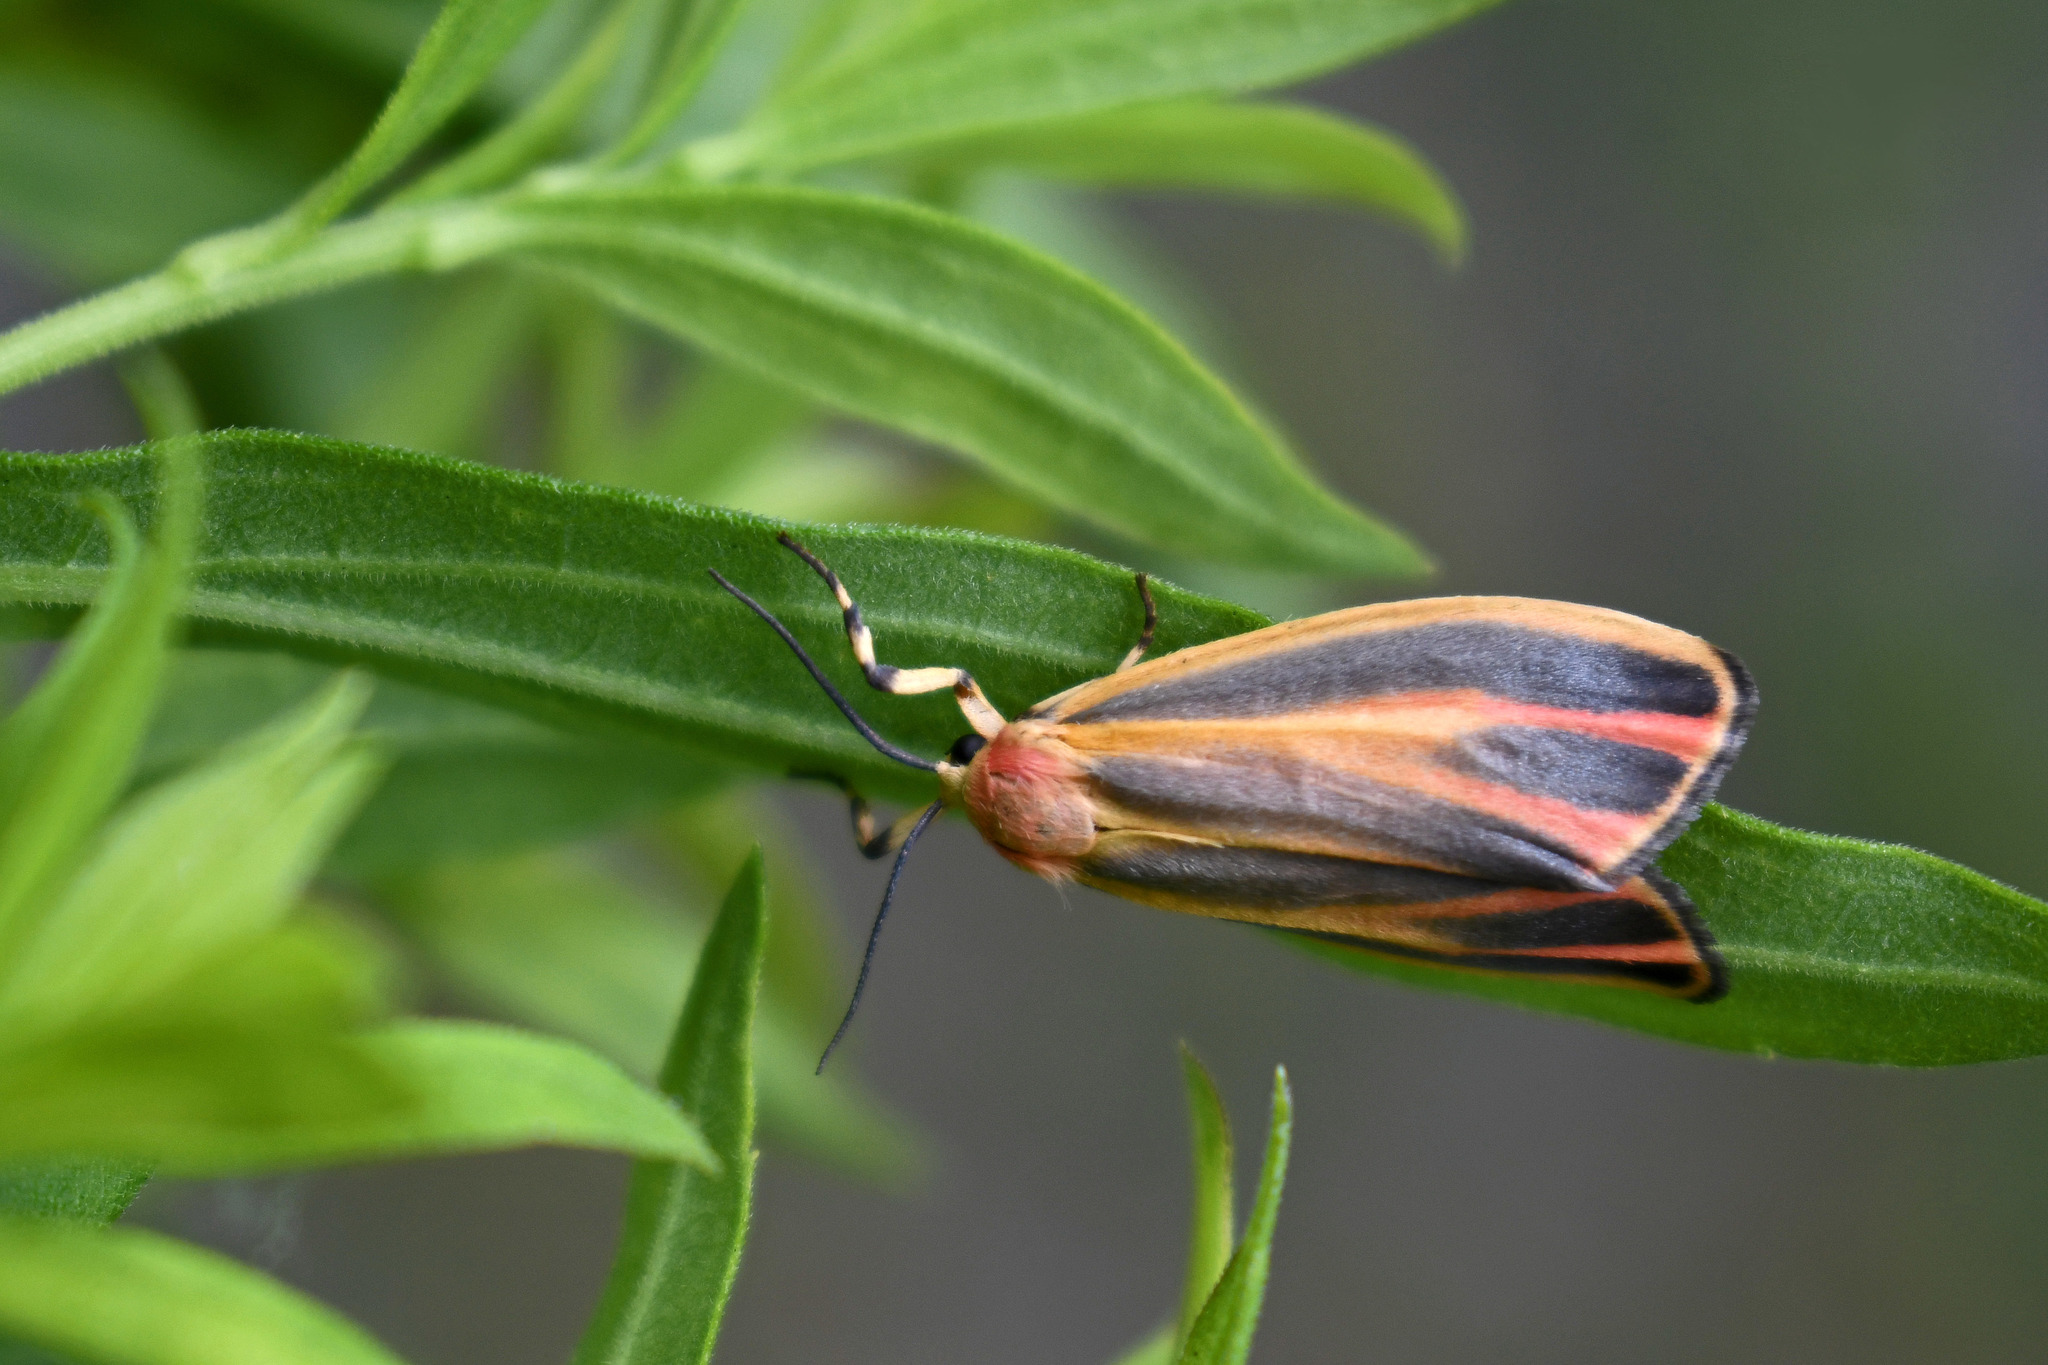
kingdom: Animalia
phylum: Arthropoda
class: Insecta
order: Lepidoptera
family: Erebidae
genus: Hypoprepia
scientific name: Hypoprepia fucosa
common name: Painted lichen moth
